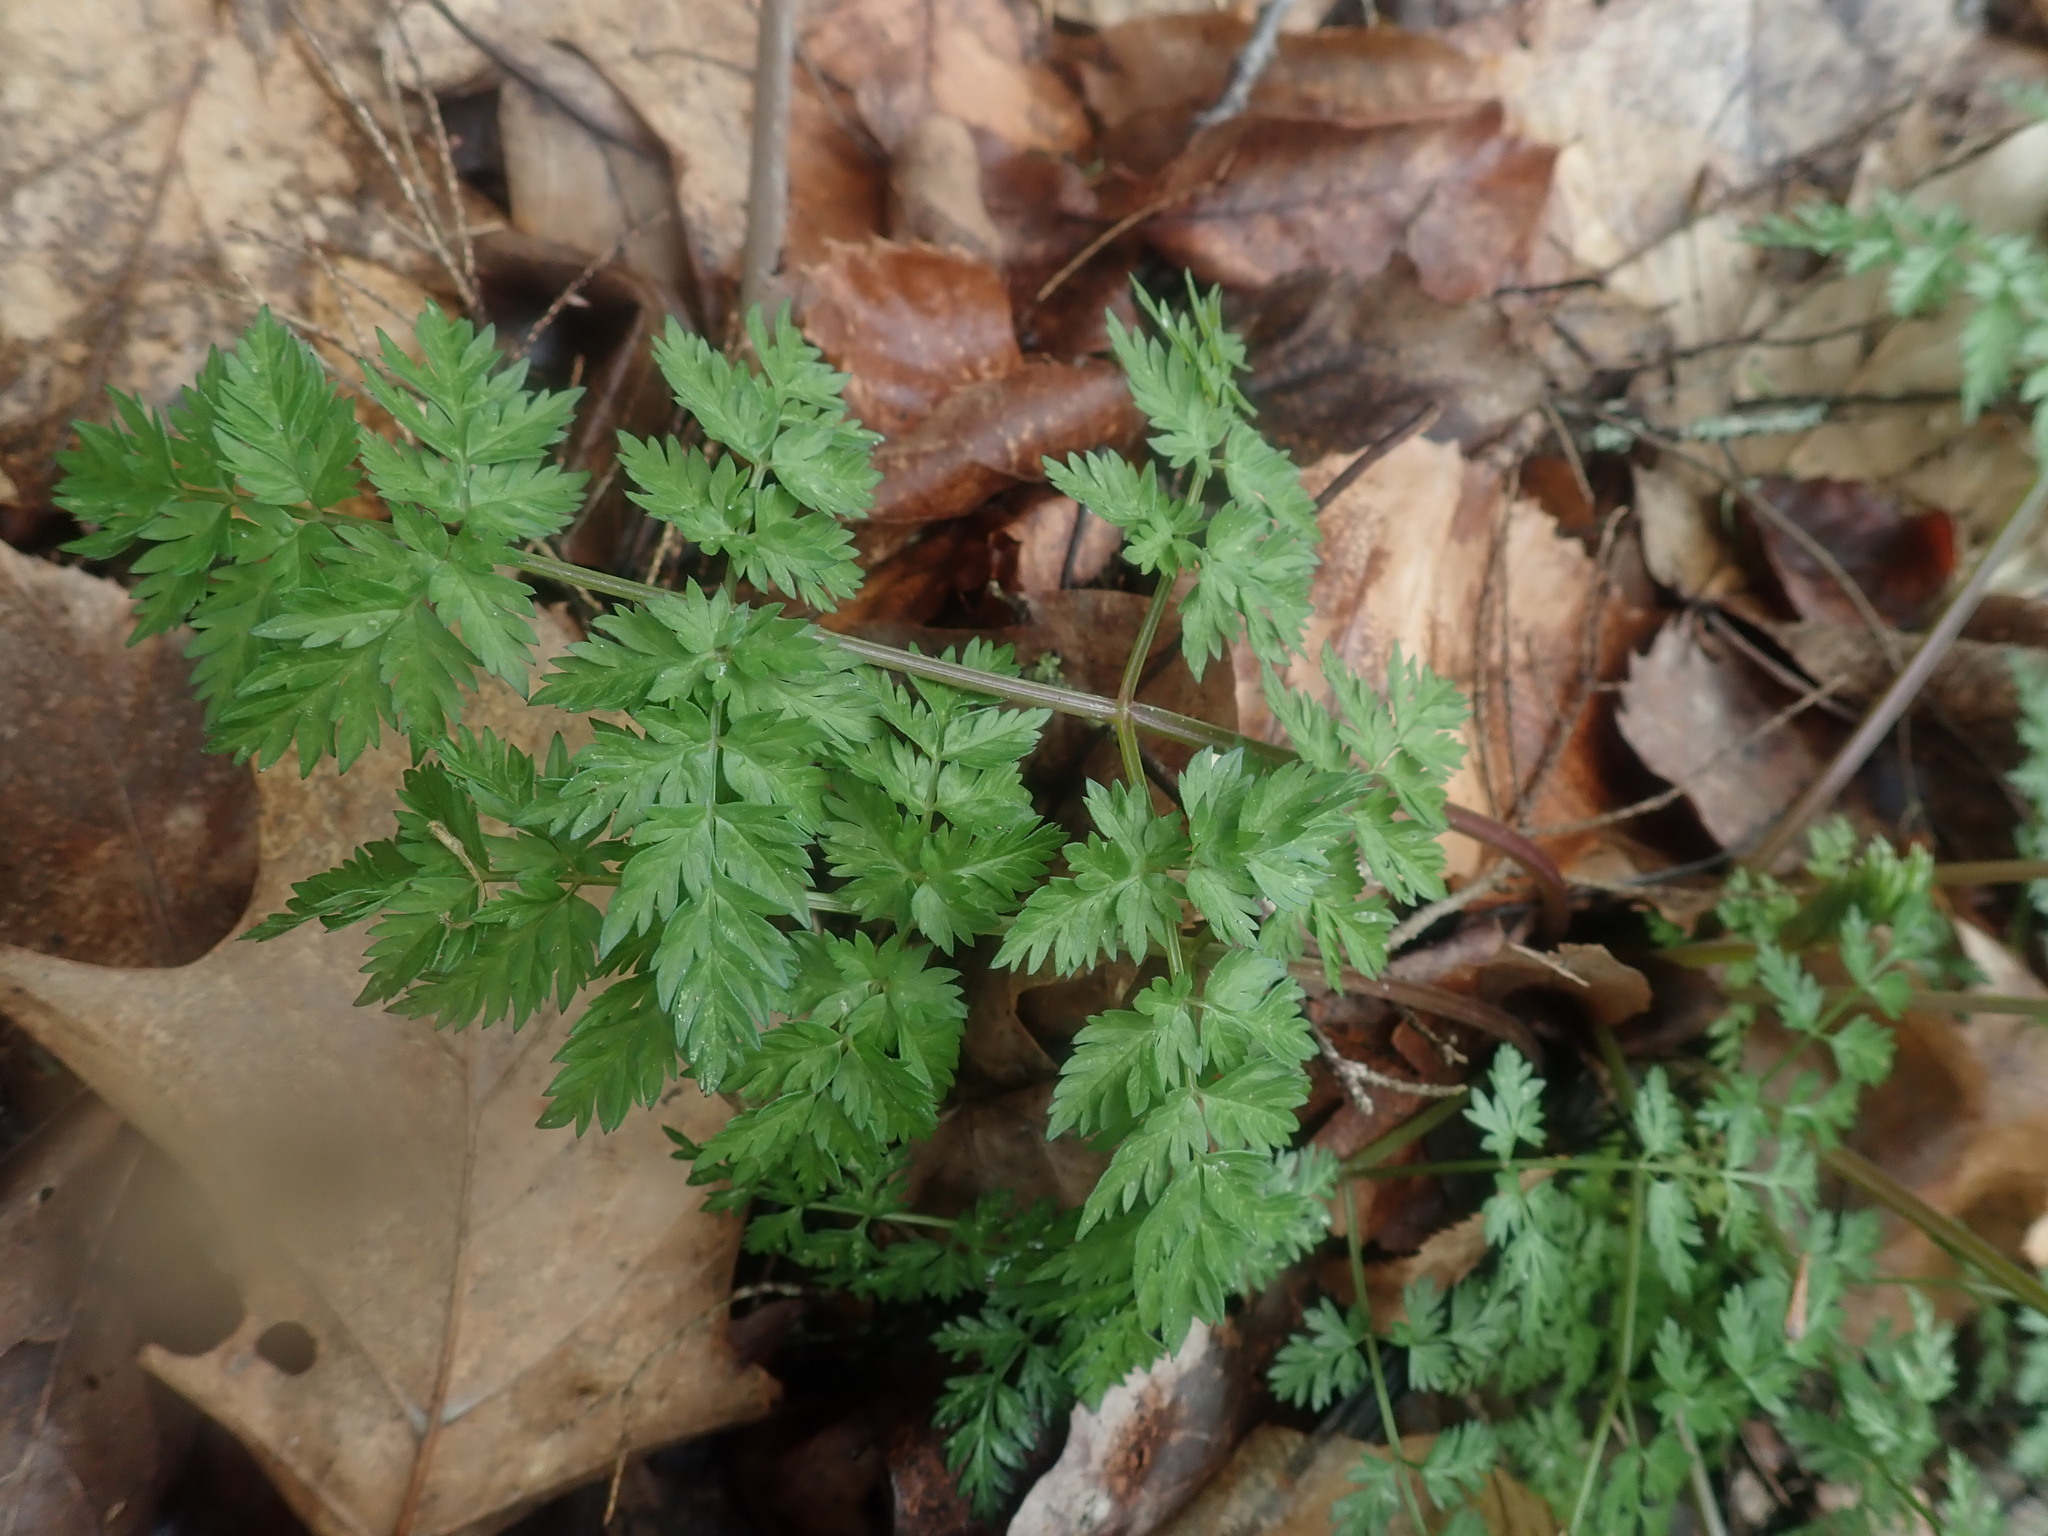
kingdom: Plantae
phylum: Tracheophyta
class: Magnoliopsida
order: Apiales
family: Apiaceae
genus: Anthriscus
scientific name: Anthriscus sylvestris
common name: Cow parsley
